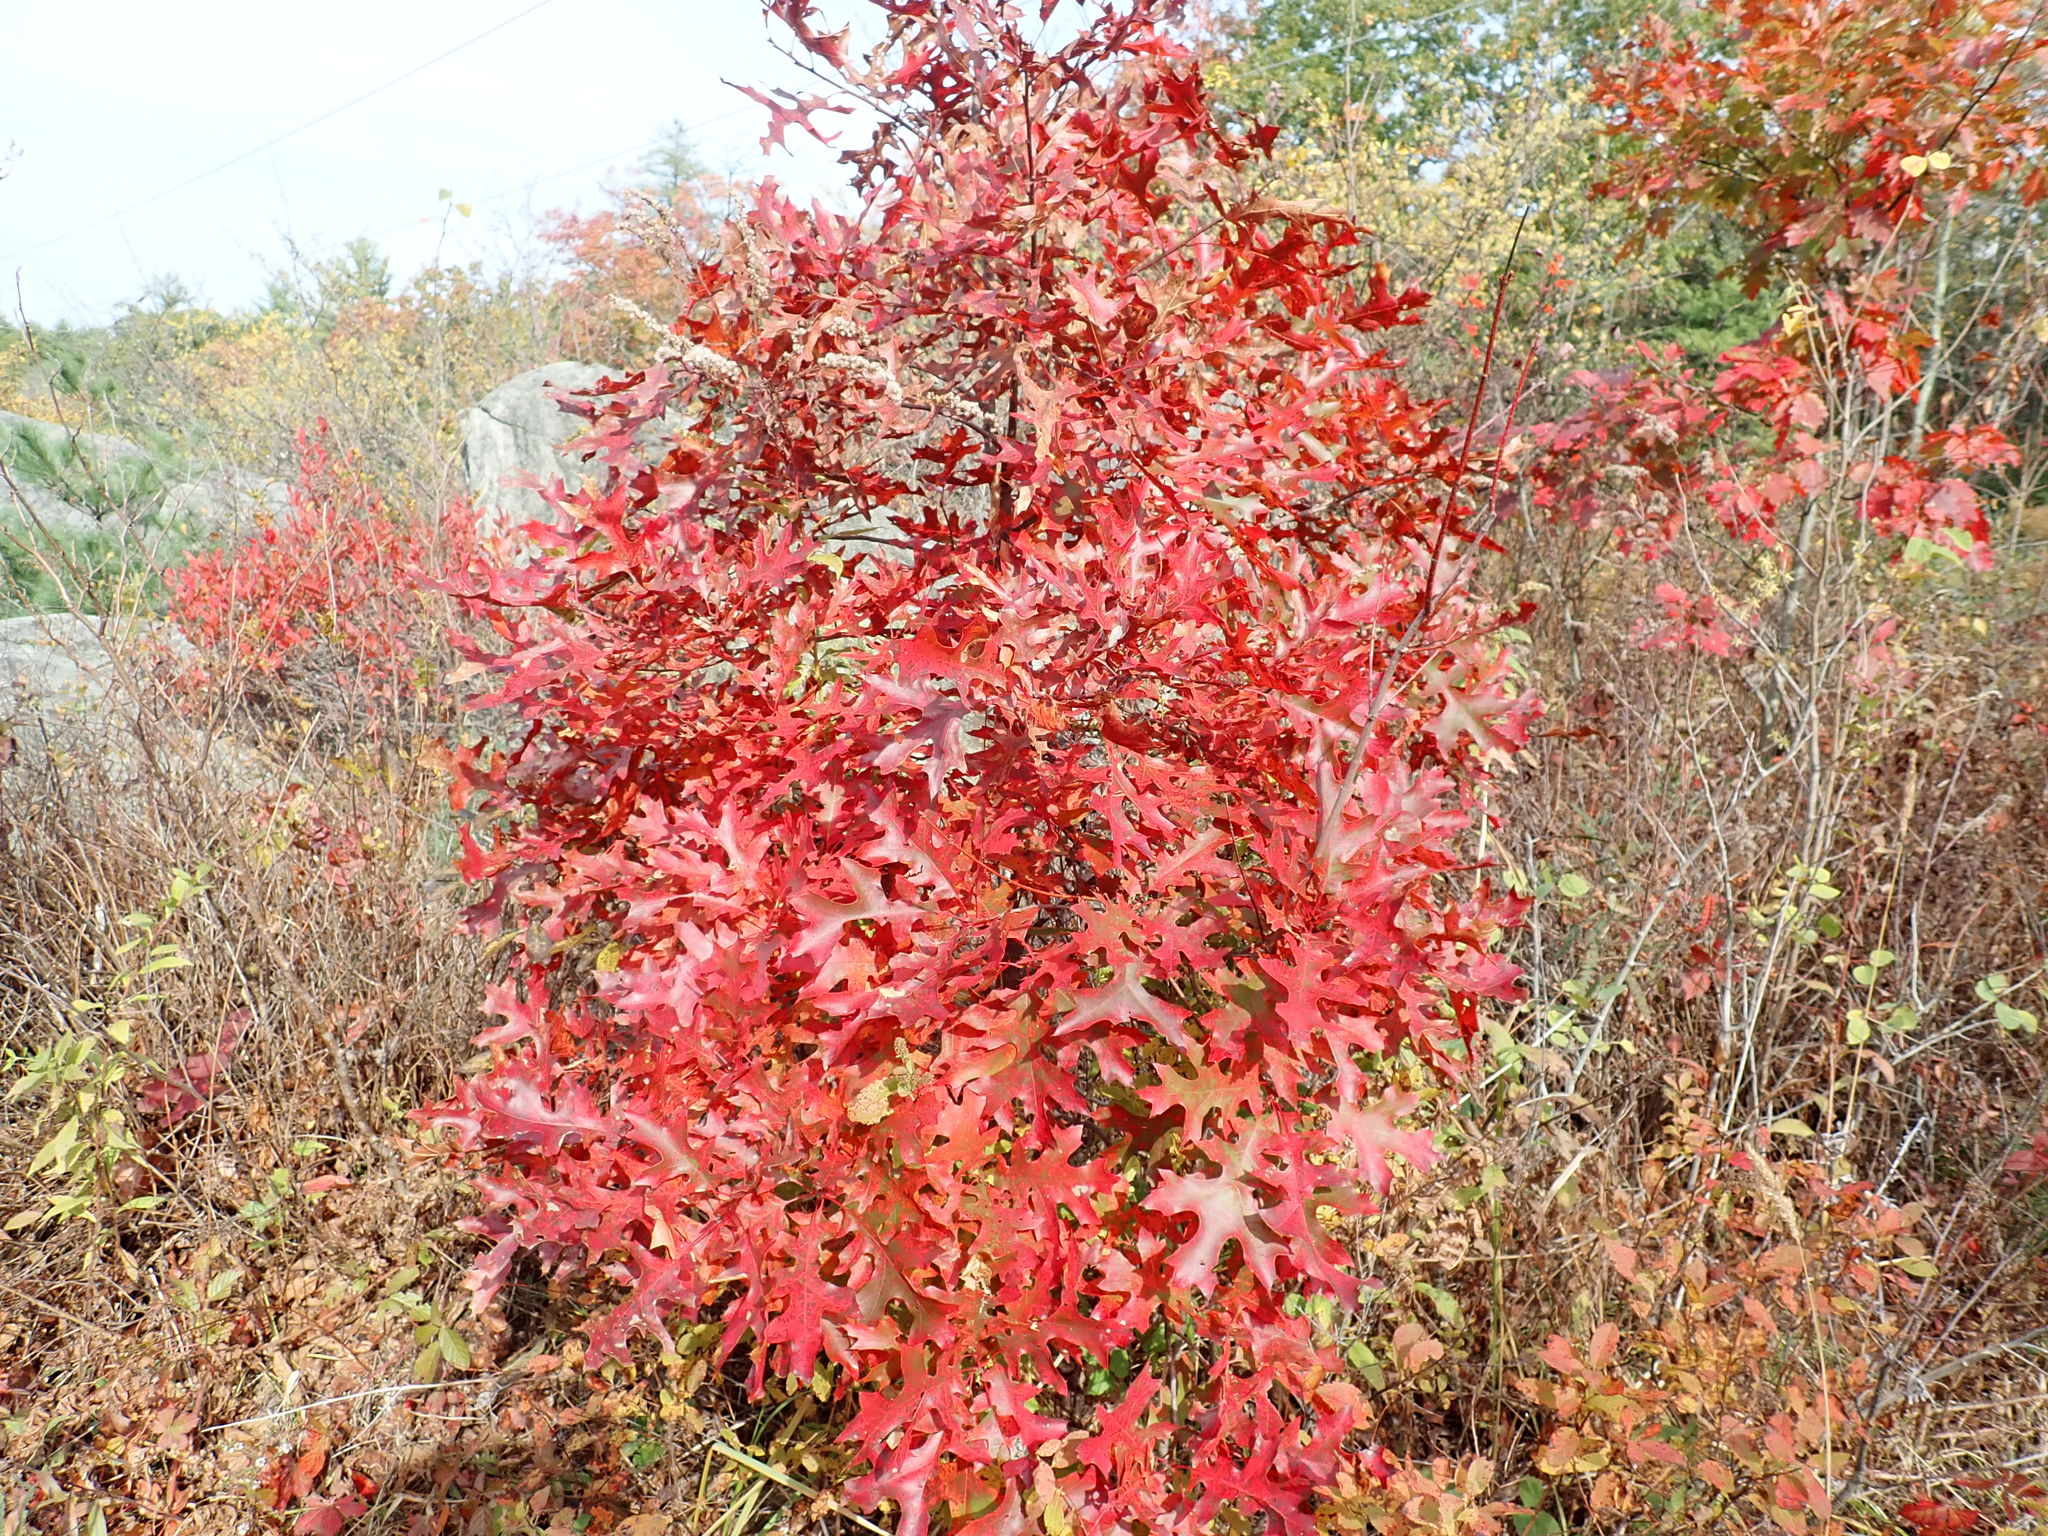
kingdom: Plantae
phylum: Tracheophyta
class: Magnoliopsida
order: Fagales
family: Fagaceae
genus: Quercus
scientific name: Quercus coccinea
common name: Scarlet oak
